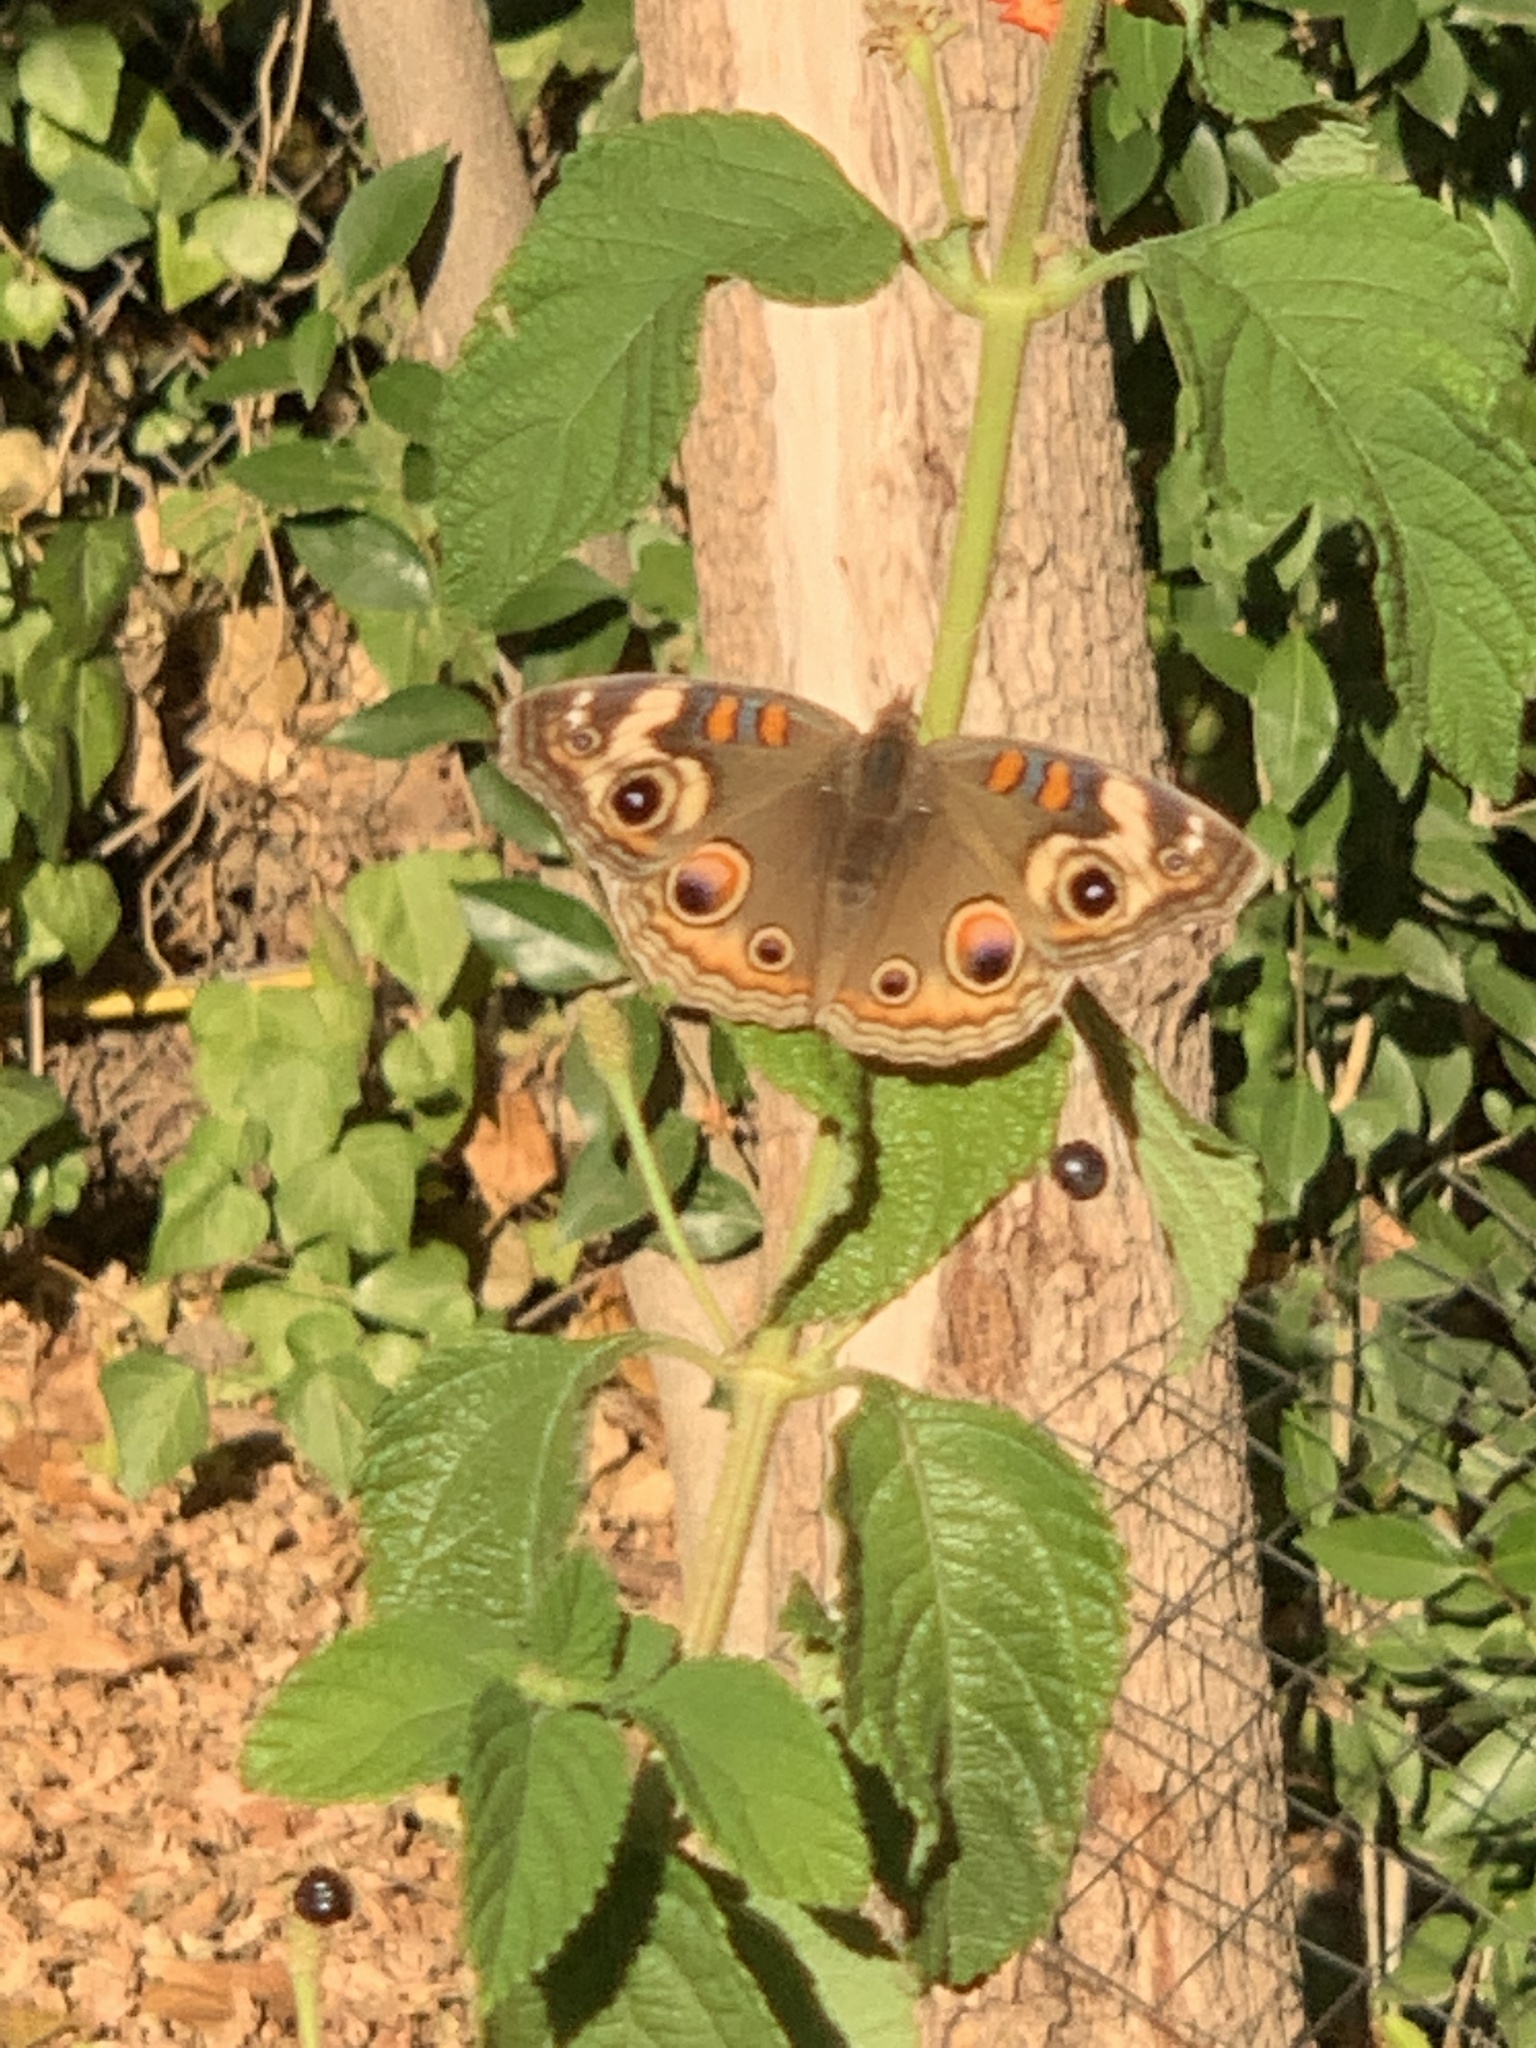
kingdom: Animalia
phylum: Arthropoda
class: Insecta
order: Lepidoptera
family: Nymphalidae
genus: Junonia
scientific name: Junonia grisea
